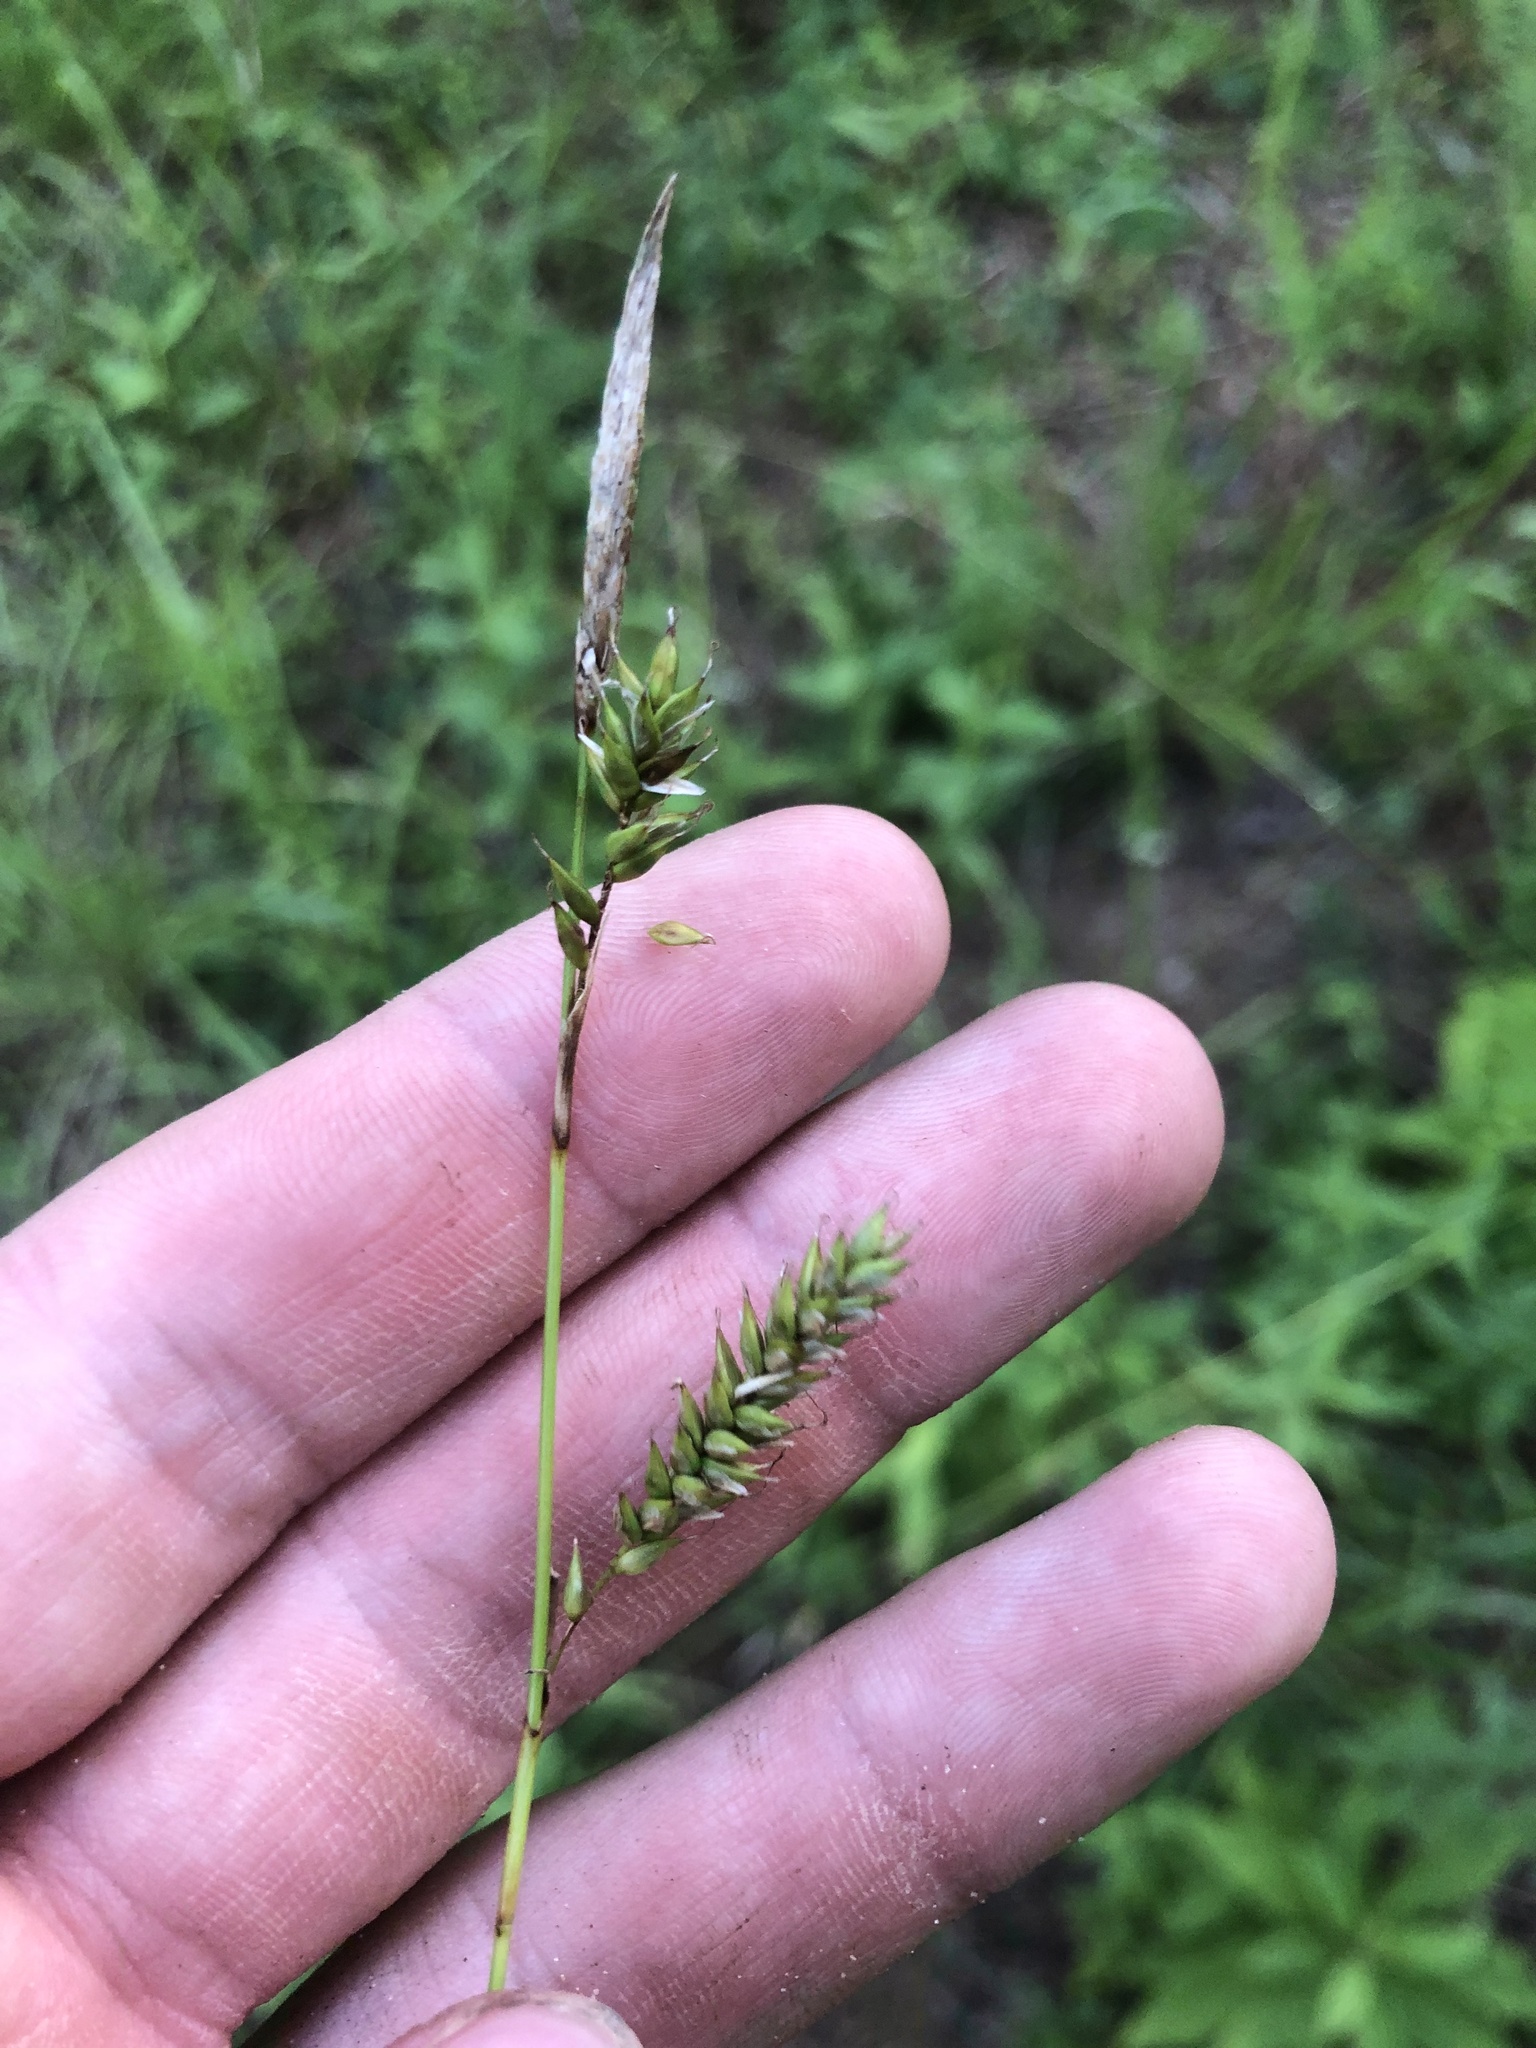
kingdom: Plantae
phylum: Tracheophyta
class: Liliopsida
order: Poales
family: Cyperaceae
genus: Carex
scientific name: Carex cherokeensis
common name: Cherokee sedge
